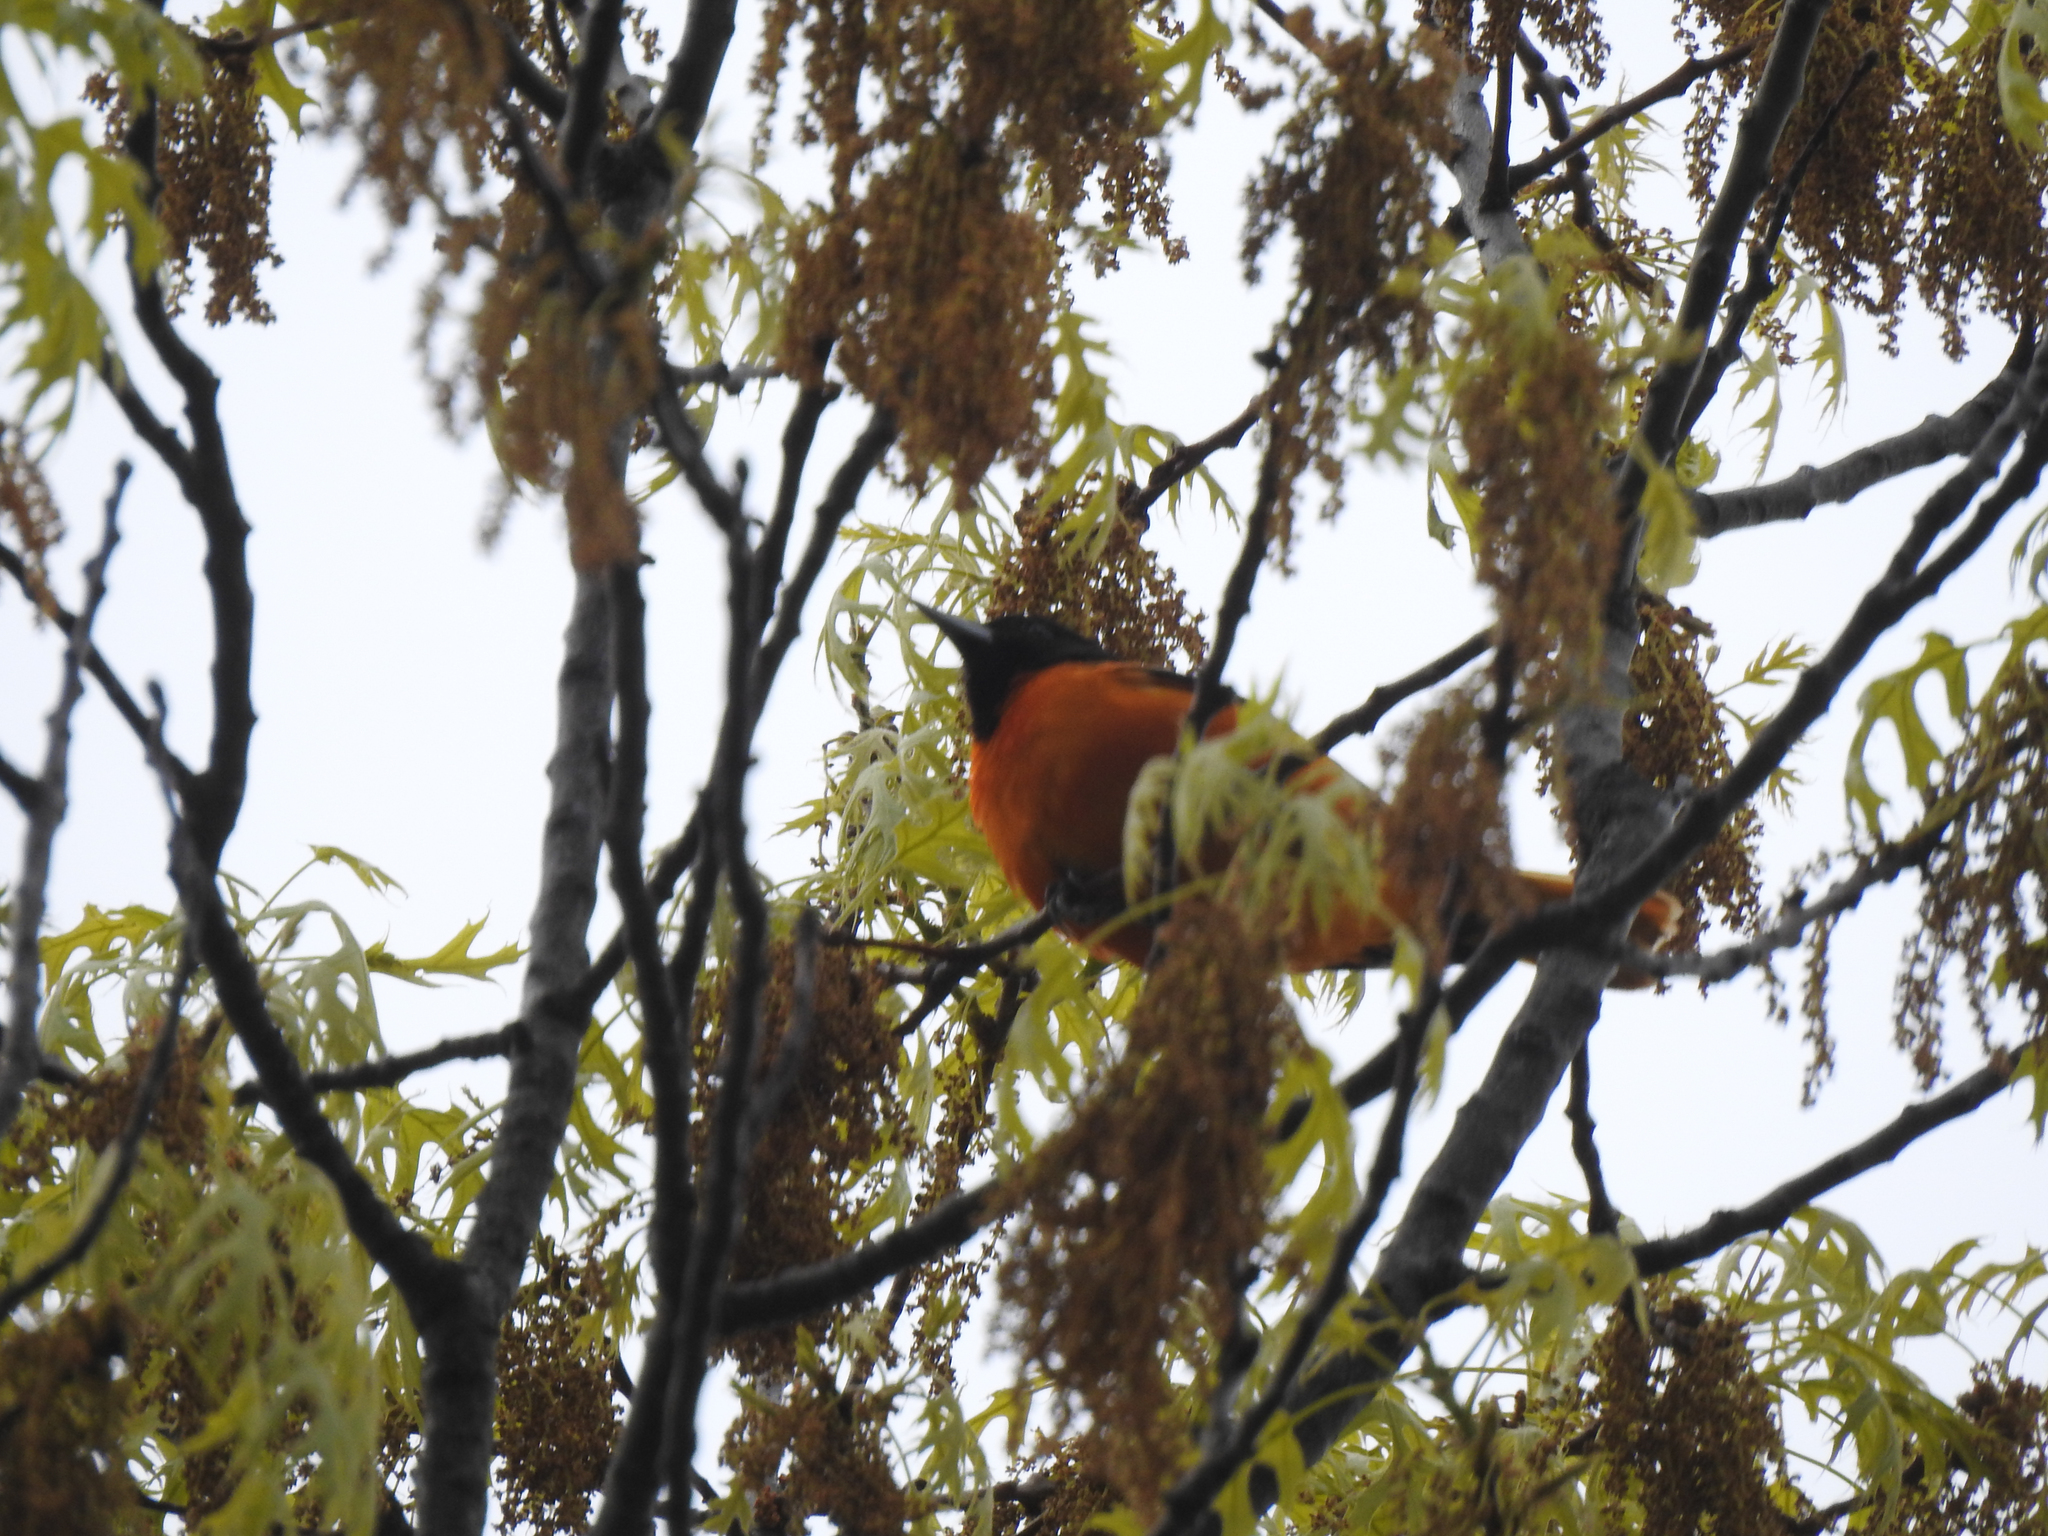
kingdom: Animalia
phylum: Chordata
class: Aves
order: Passeriformes
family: Icteridae
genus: Icterus
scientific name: Icterus galbula
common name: Baltimore oriole
